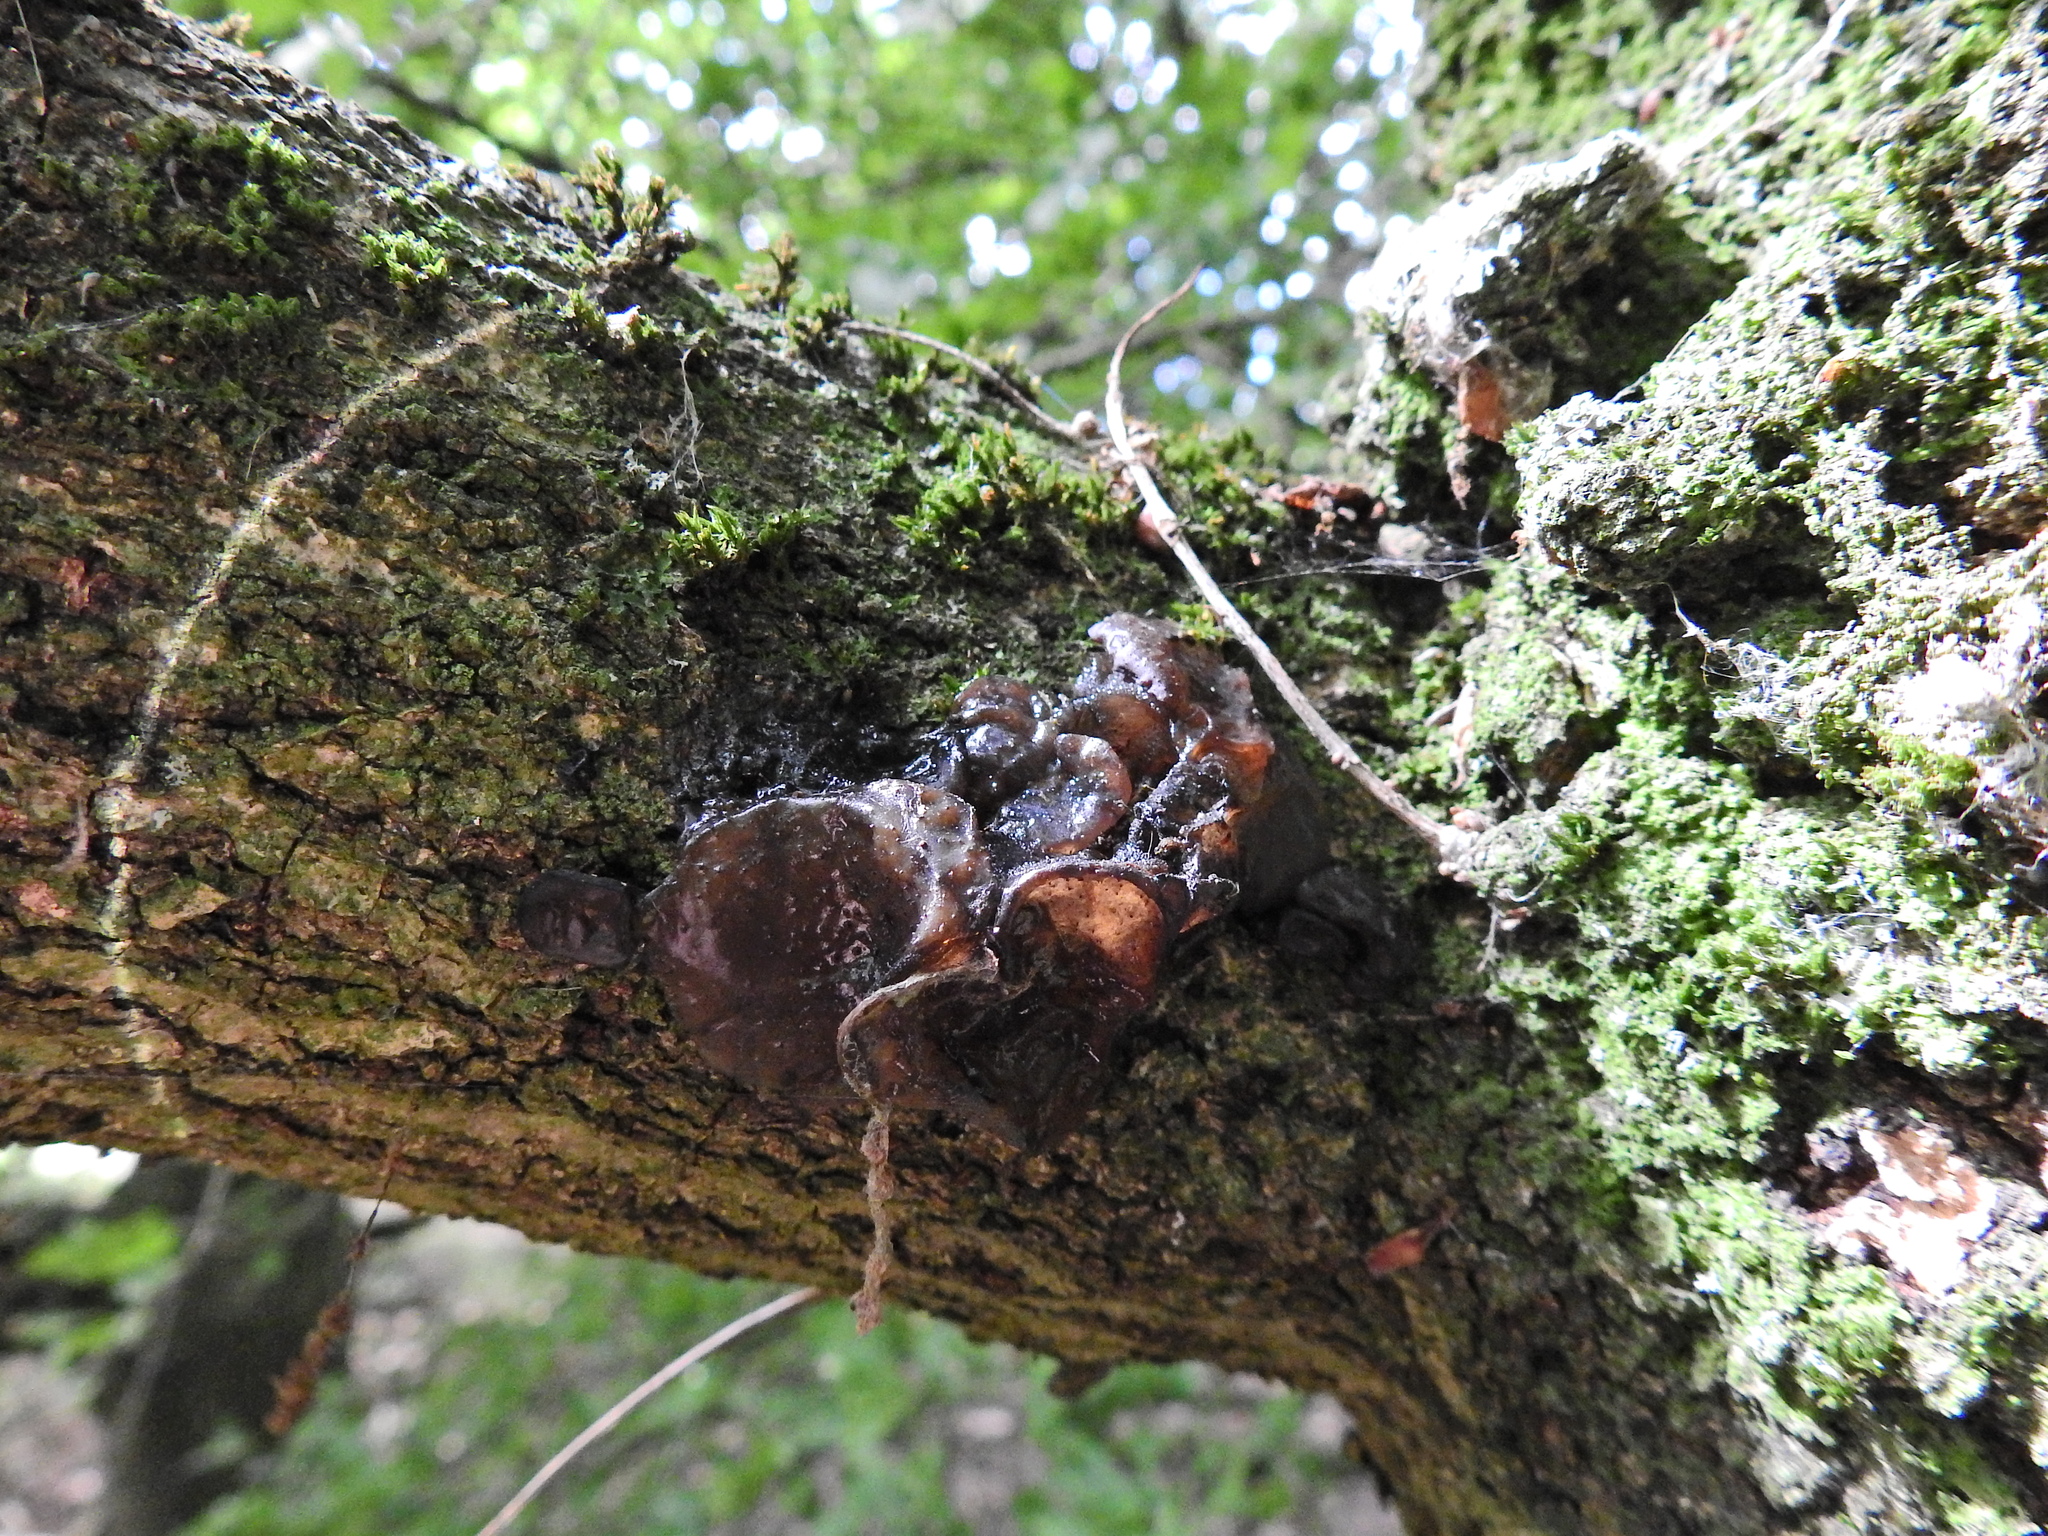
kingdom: Fungi
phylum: Basidiomycota
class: Agaricomycetes
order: Auriculariales
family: Auriculariaceae
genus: Auricularia
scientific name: Auricularia auricula-judae
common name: Jelly ear
